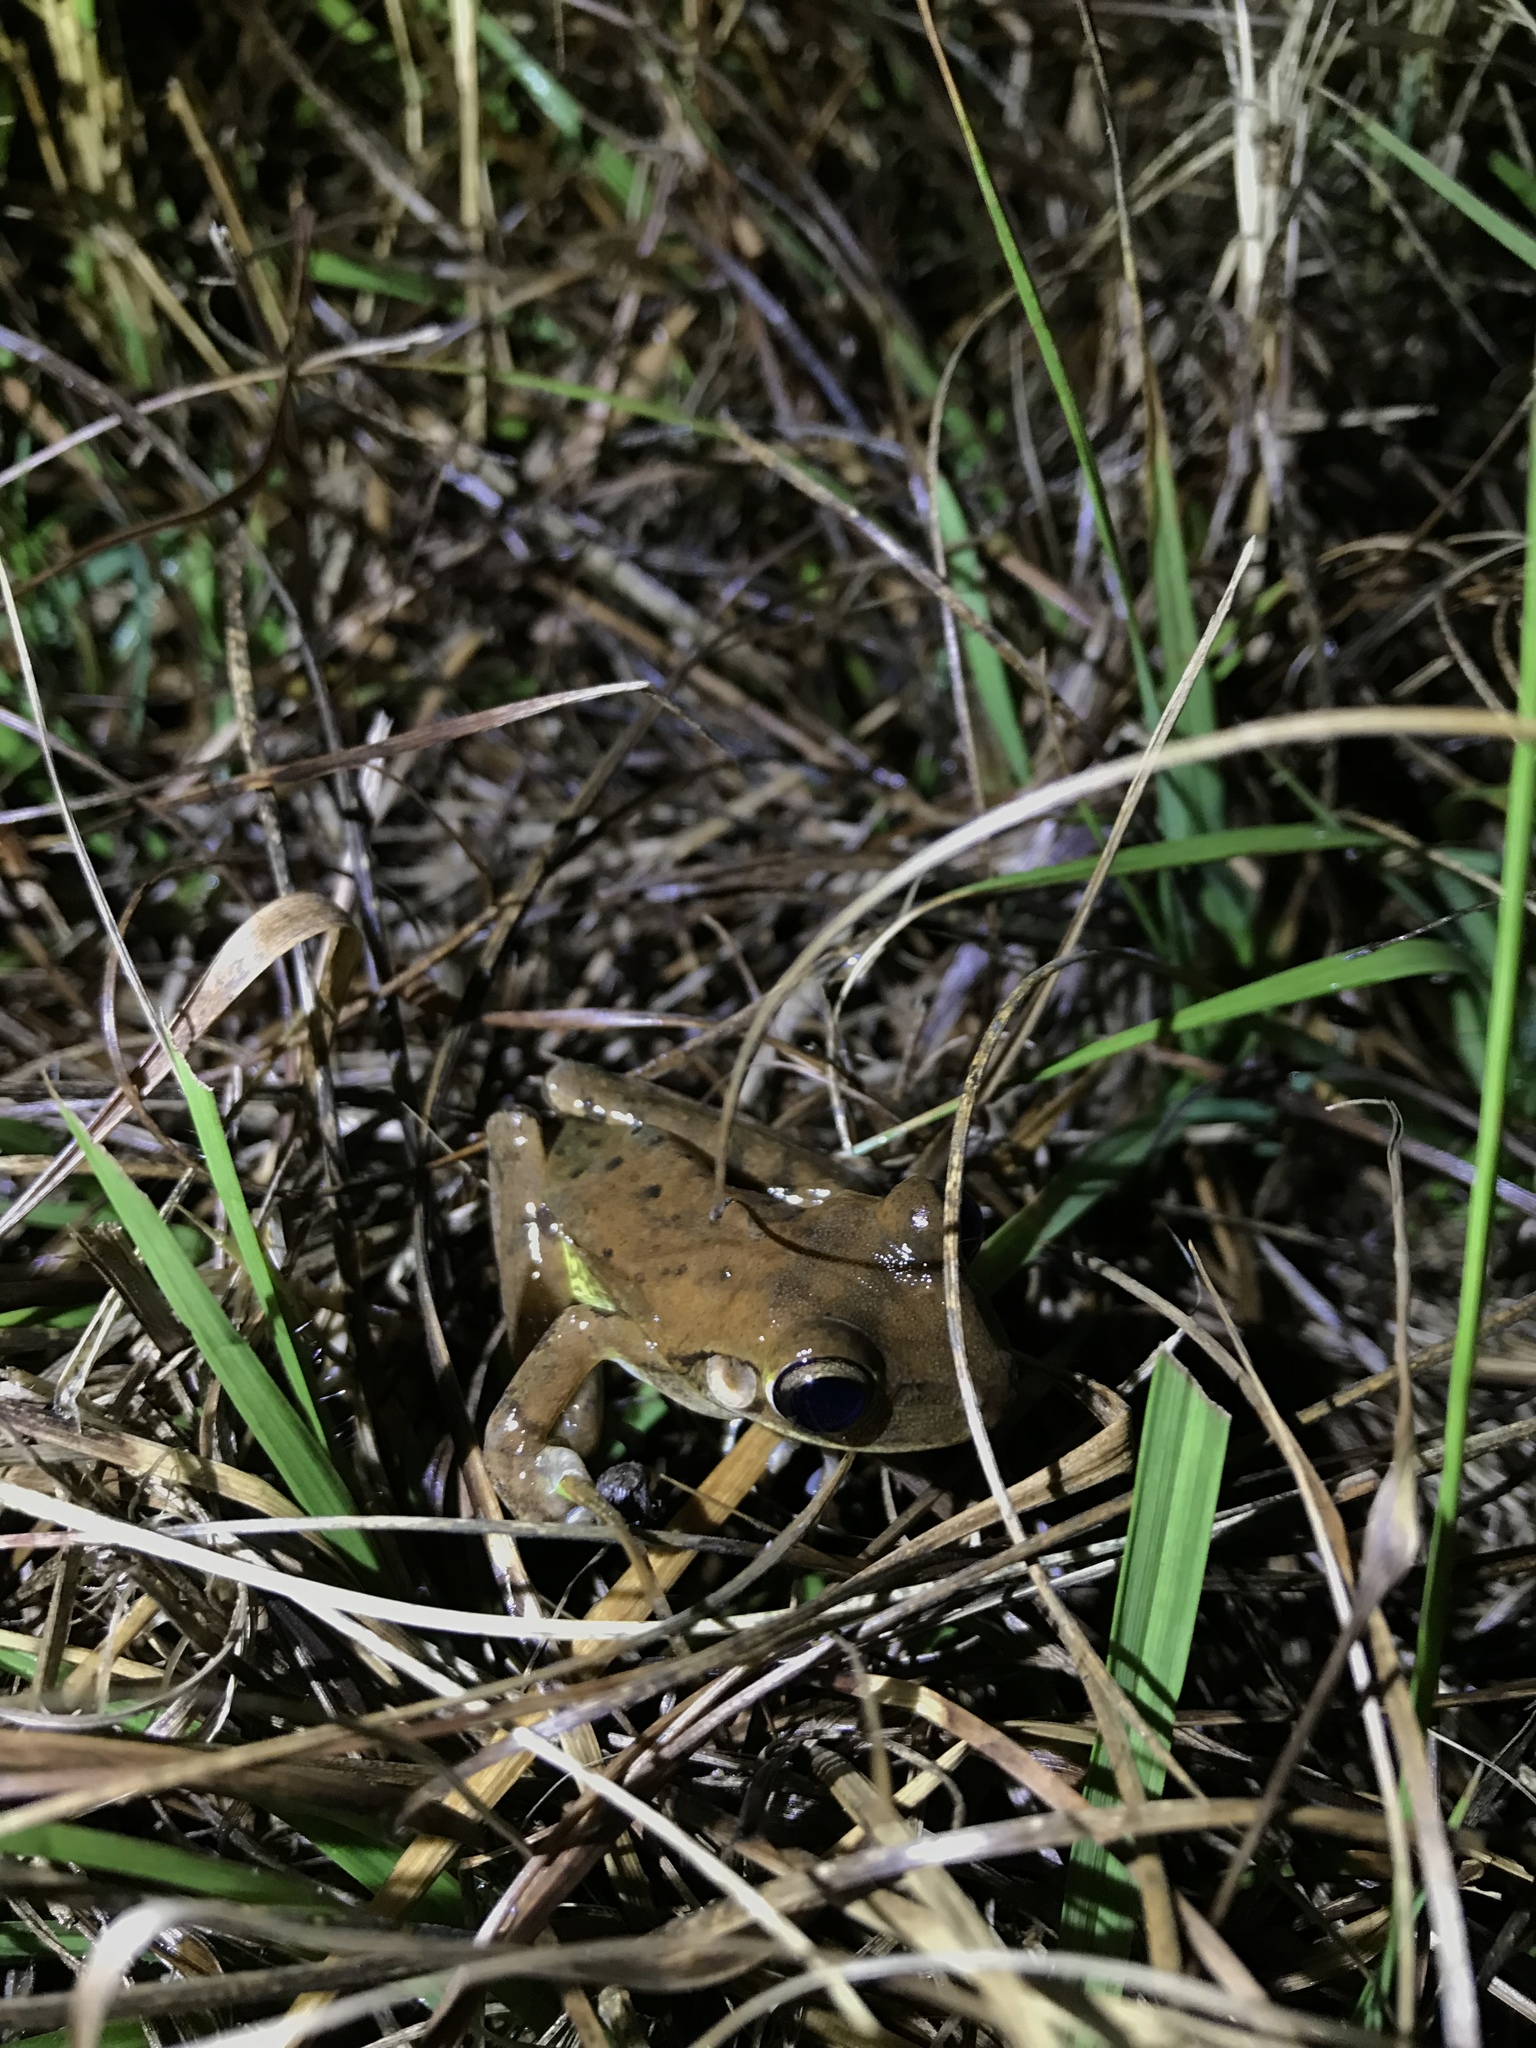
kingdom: Animalia
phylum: Chordata
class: Amphibia
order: Anura
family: Hylidae
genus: Osteopilus
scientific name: Osteopilus septentrionalis
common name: Cuban treefrog
